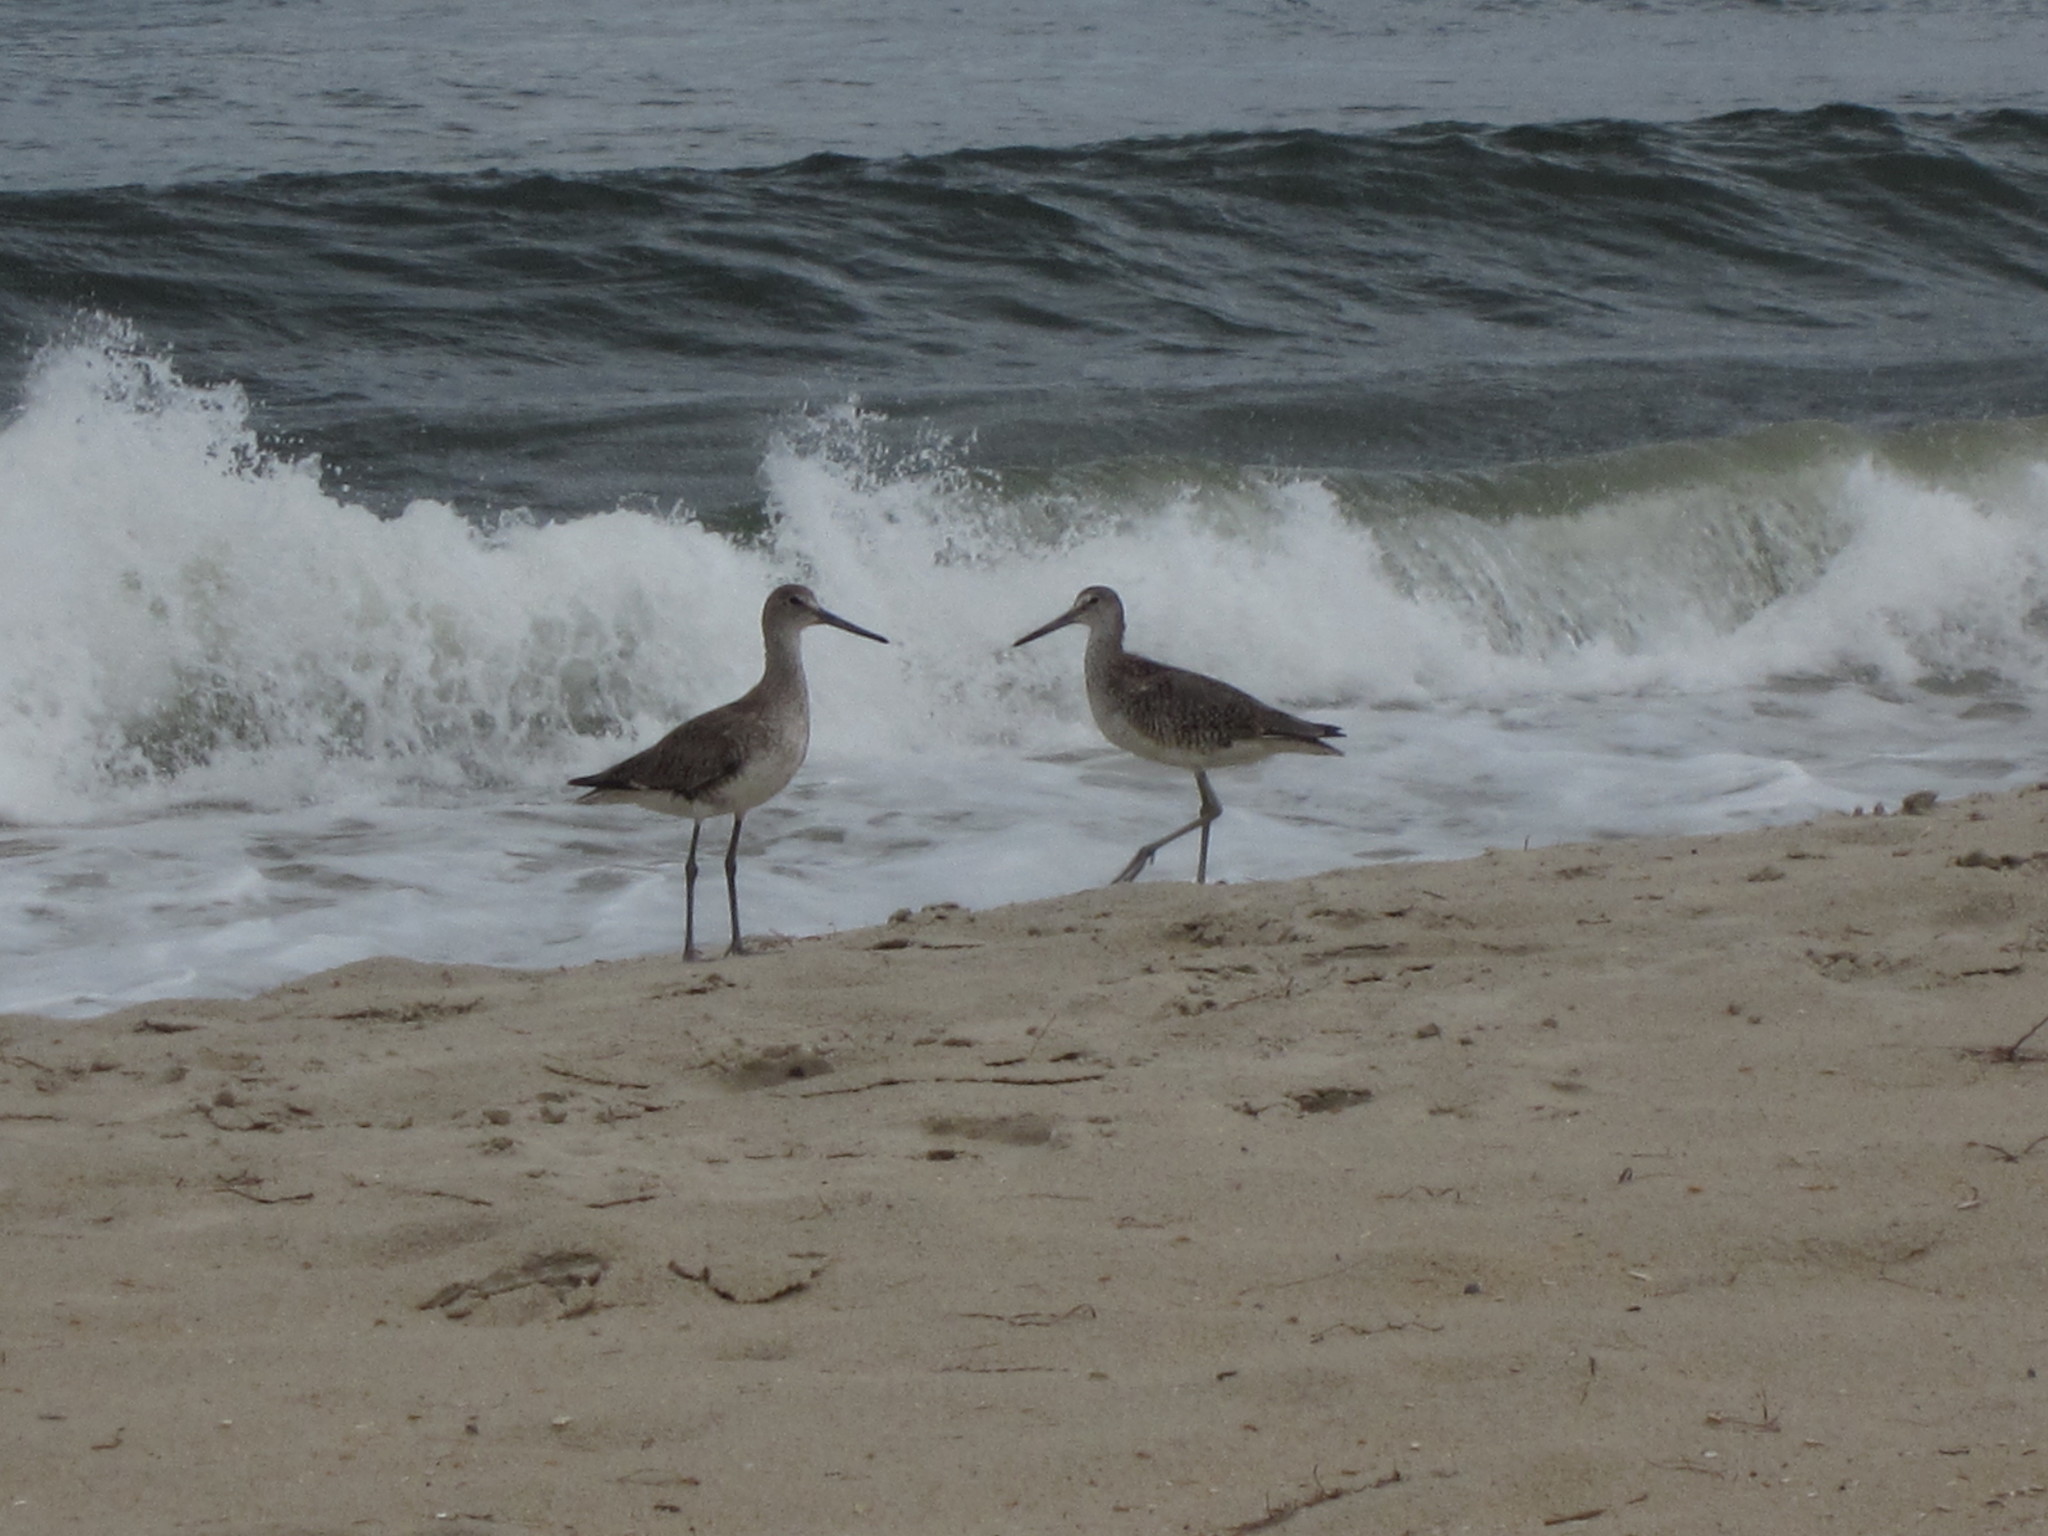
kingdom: Animalia
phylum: Chordata
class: Aves
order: Charadriiformes
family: Scolopacidae
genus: Tringa
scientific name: Tringa semipalmata
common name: Willet
